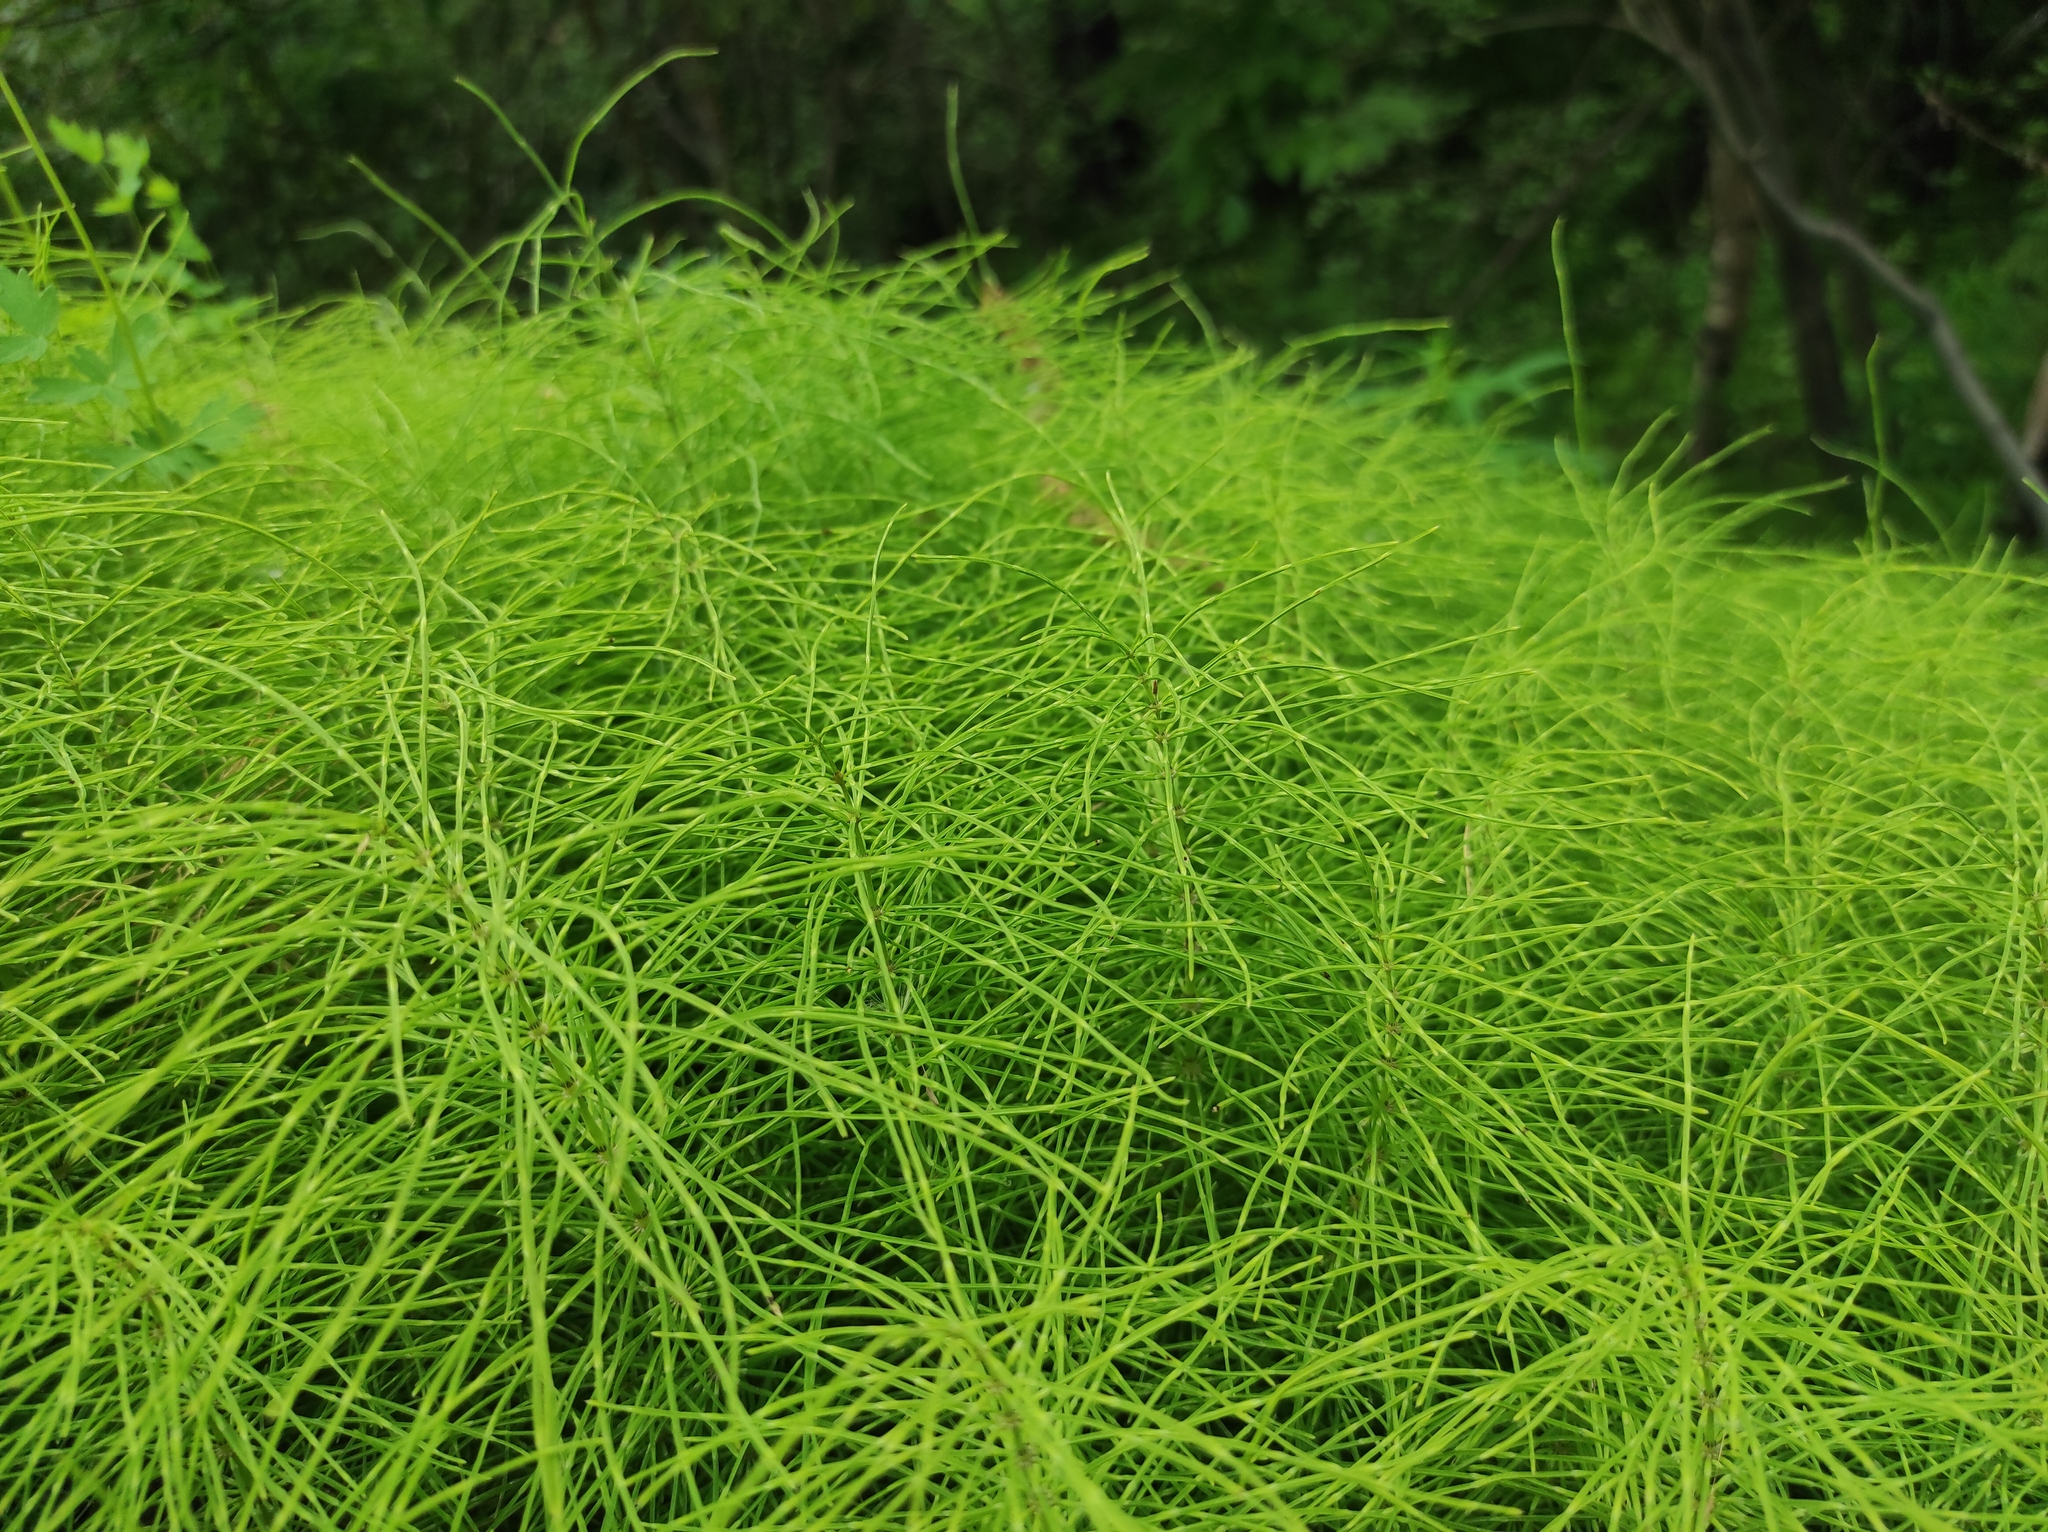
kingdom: Plantae
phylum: Tracheophyta
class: Polypodiopsida
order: Equisetales
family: Equisetaceae
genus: Equisetum
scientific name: Equisetum pratense
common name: Meadow horsetail
